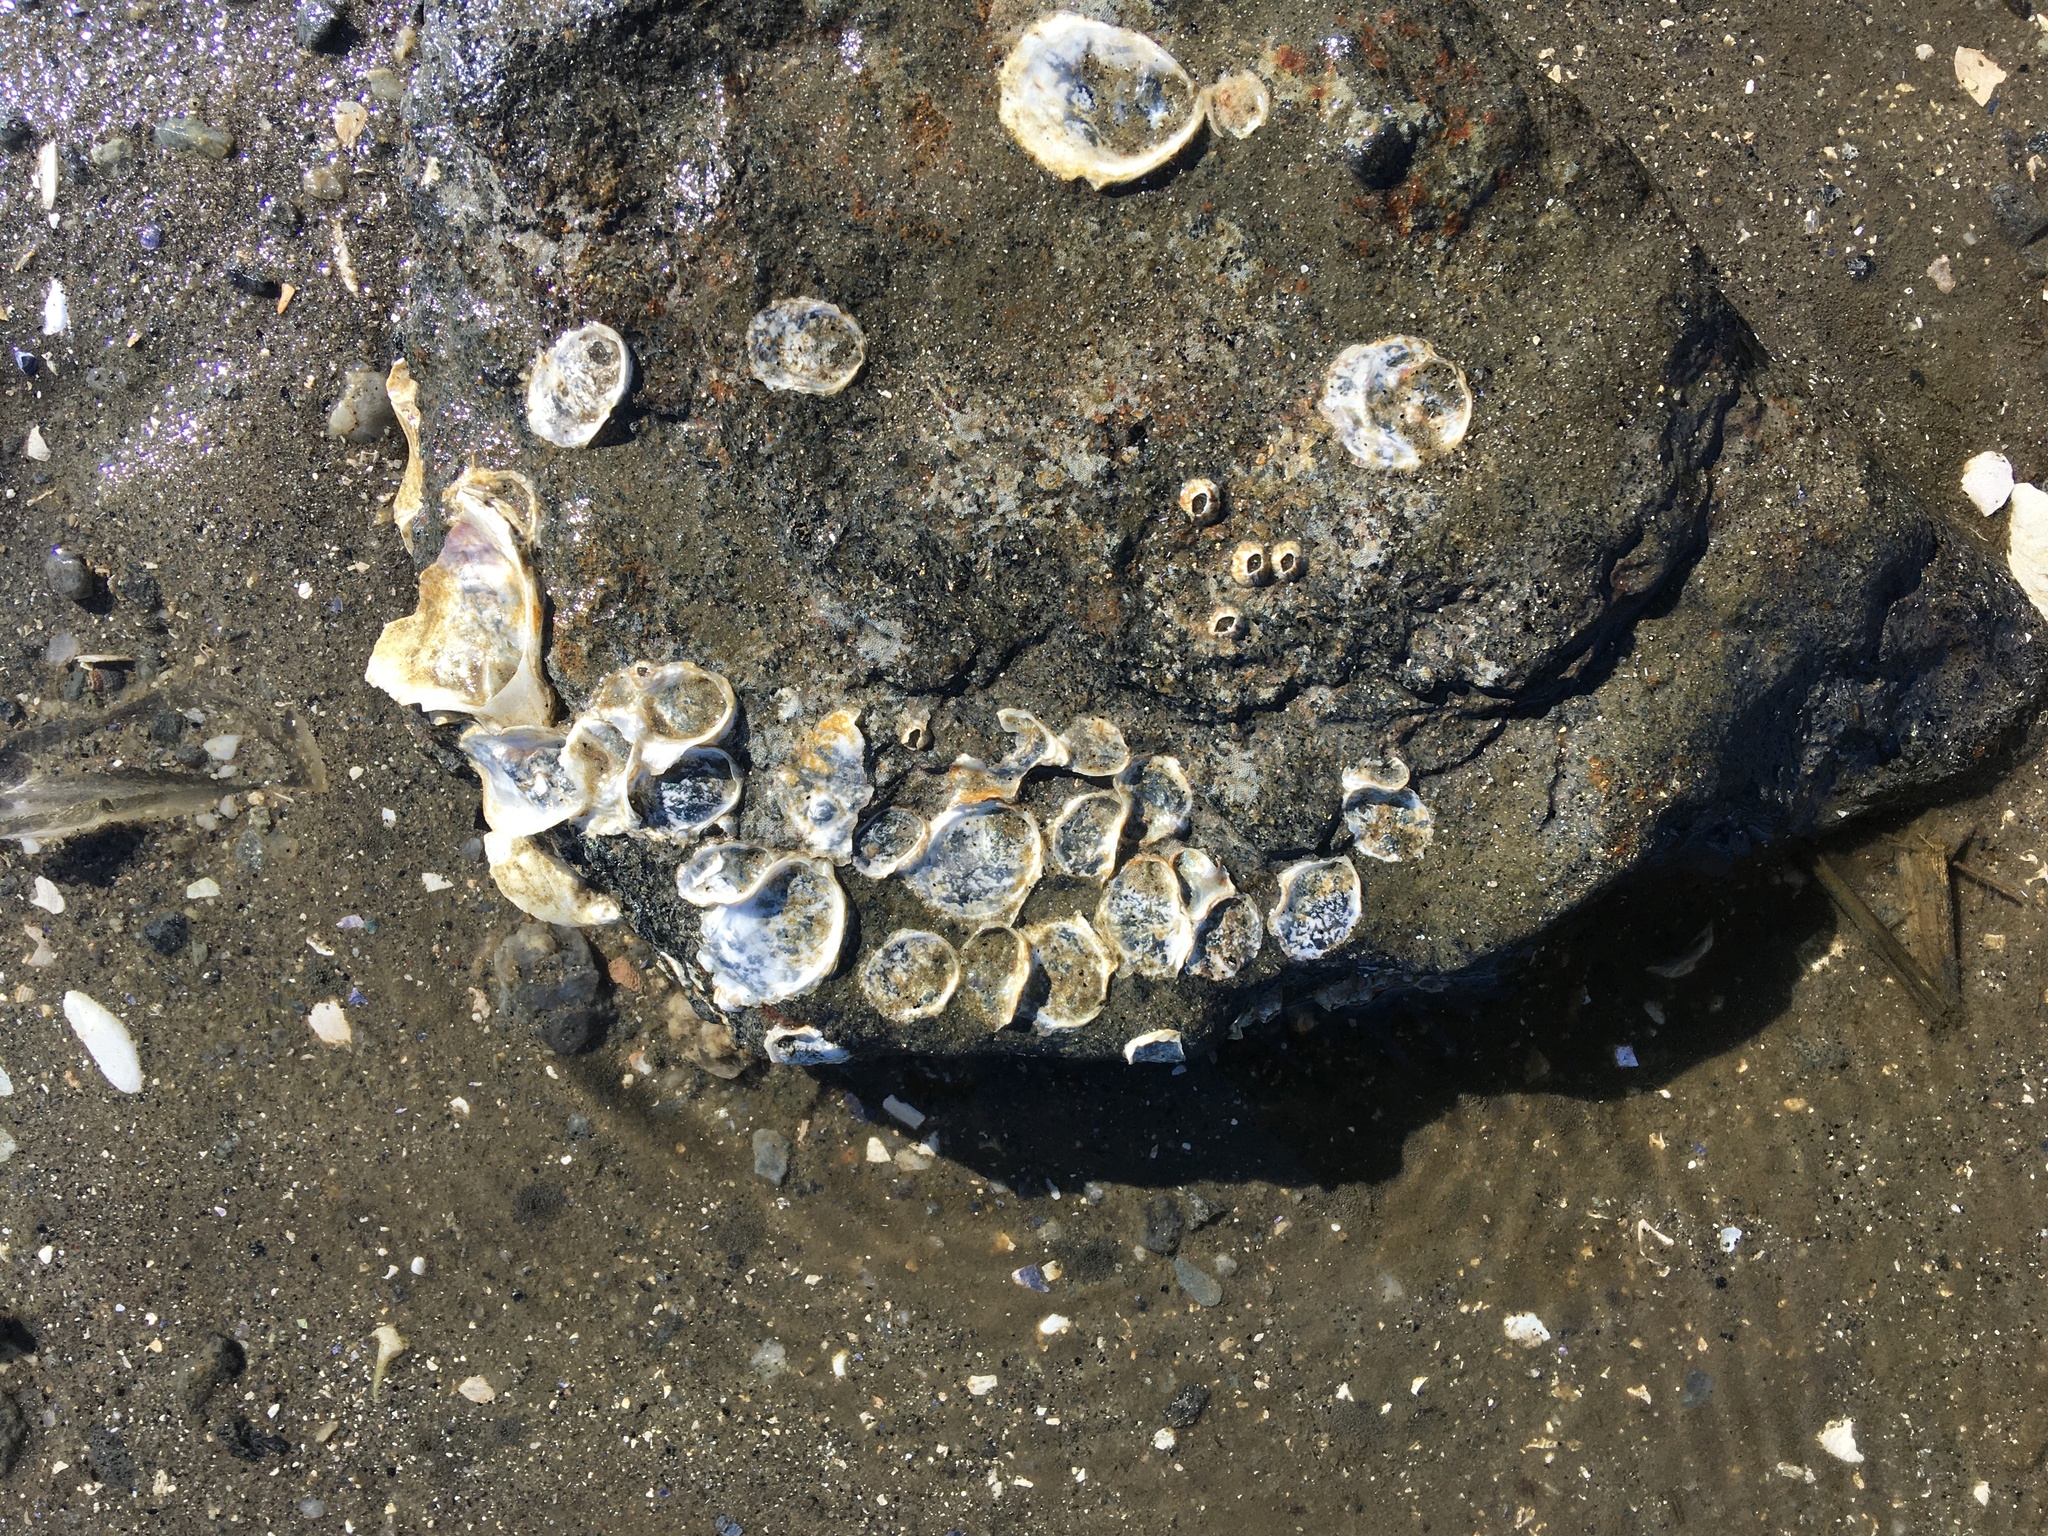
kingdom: Animalia
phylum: Mollusca
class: Bivalvia
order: Ostreida
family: Ostreidae
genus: Crassostrea
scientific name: Crassostrea virginica
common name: American oyster
